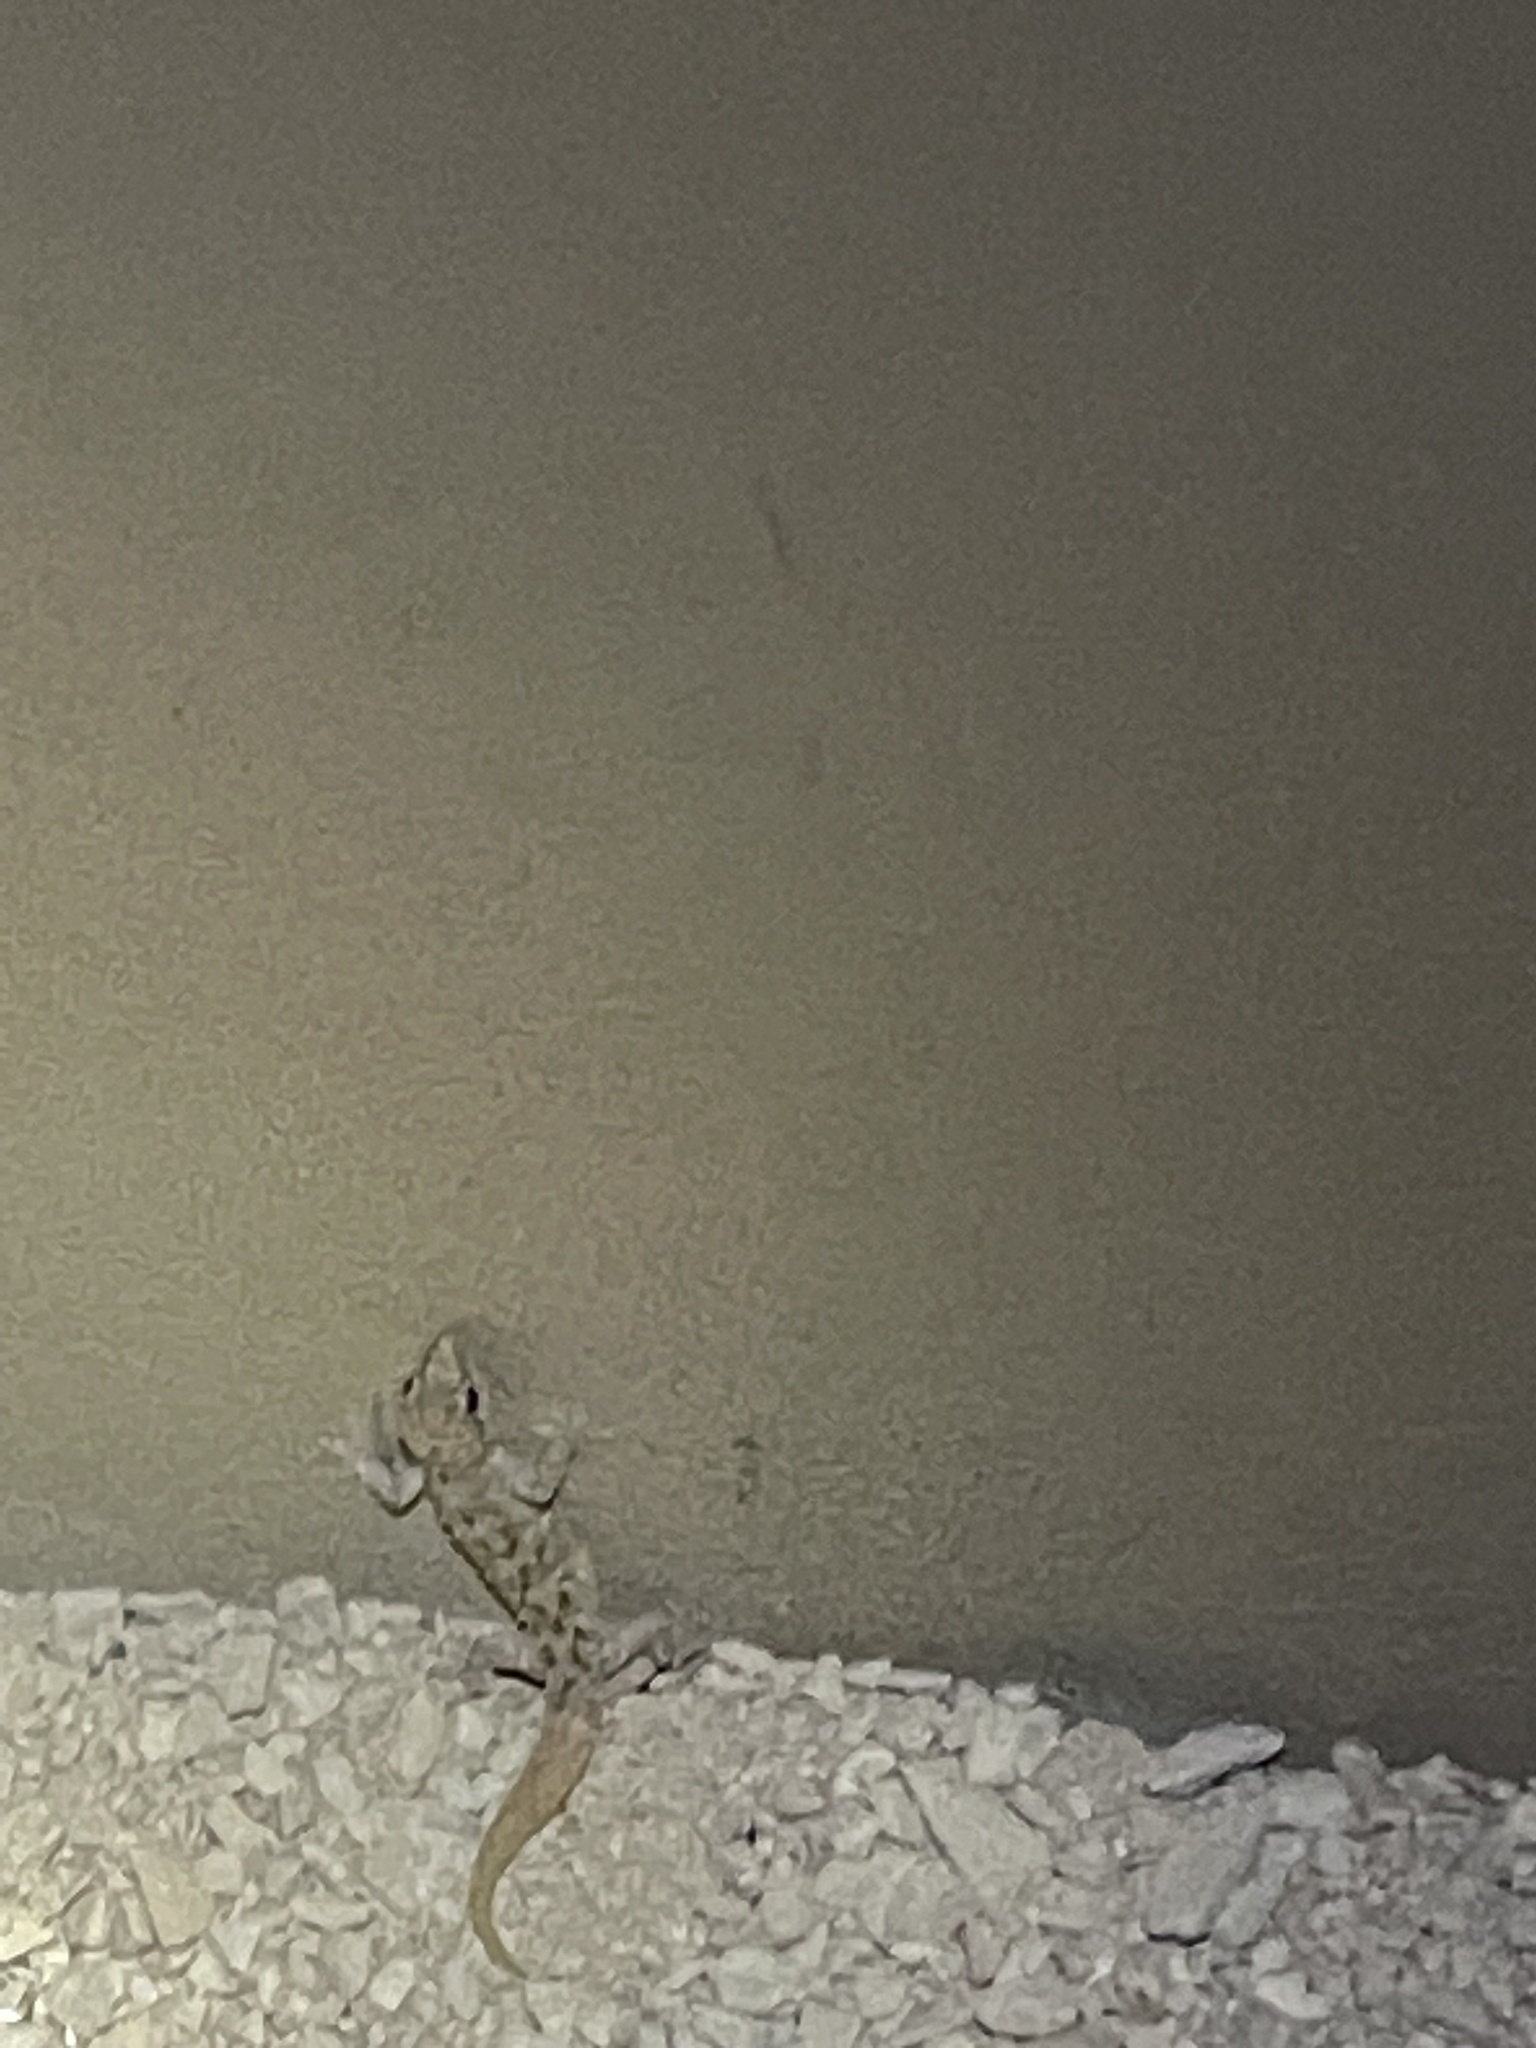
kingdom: Animalia
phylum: Chordata
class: Squamata
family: Gekkonidae
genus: Hemidactylus
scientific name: Hemidactylus turcicus
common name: Turkish gecko
